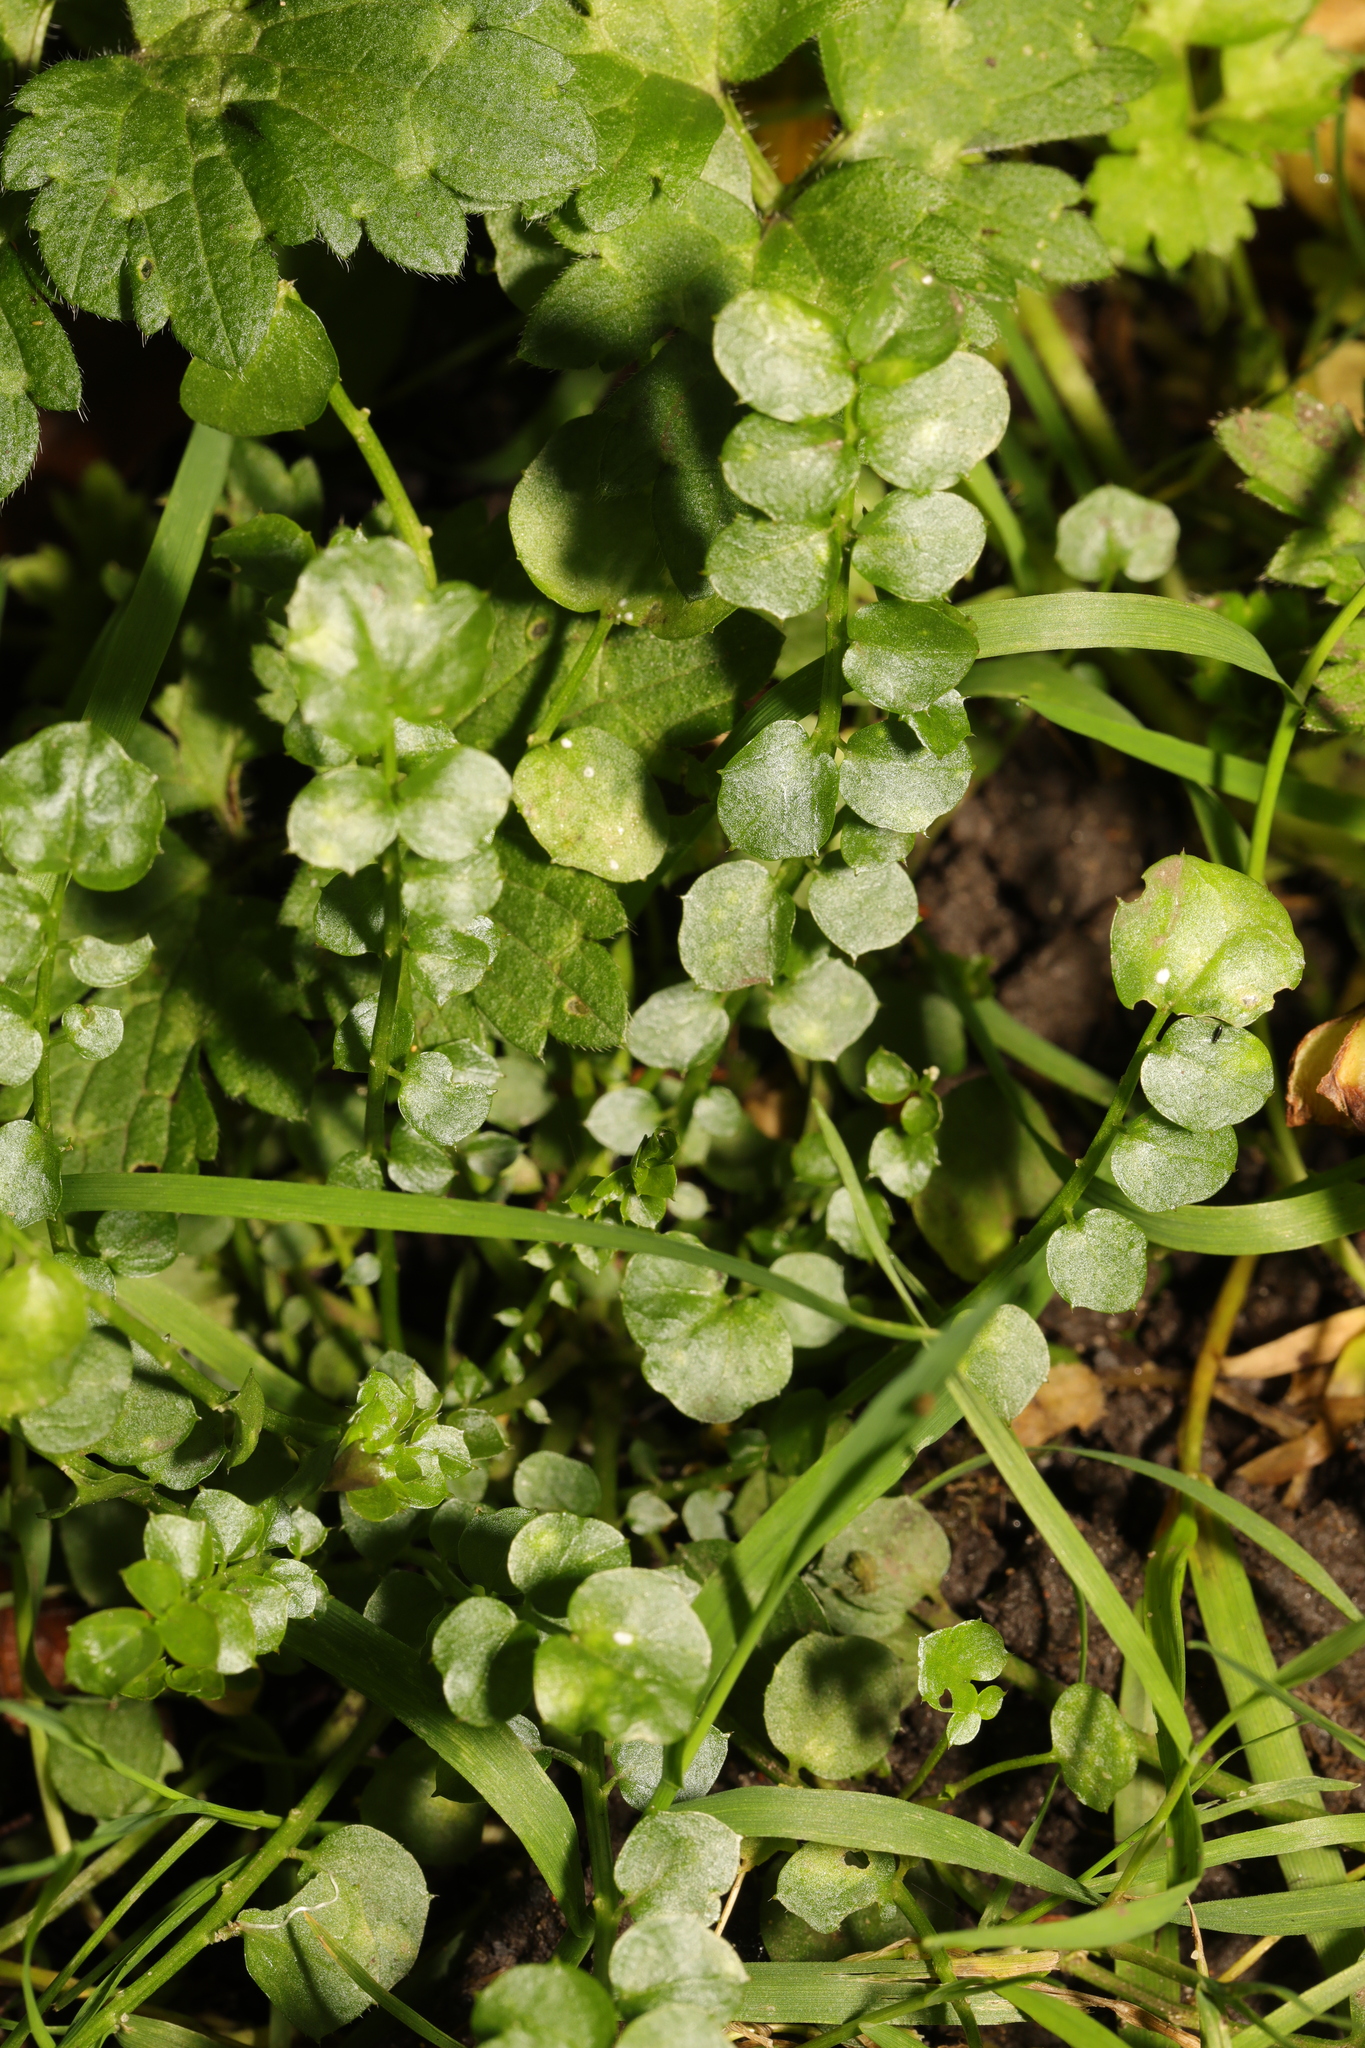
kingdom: Plantae
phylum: Tracheophyta
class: Magnoliopsida
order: Brassicales
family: Brassicaceae
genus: Cardamine
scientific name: Cardamine flexuosa
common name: Woodland bittercress
